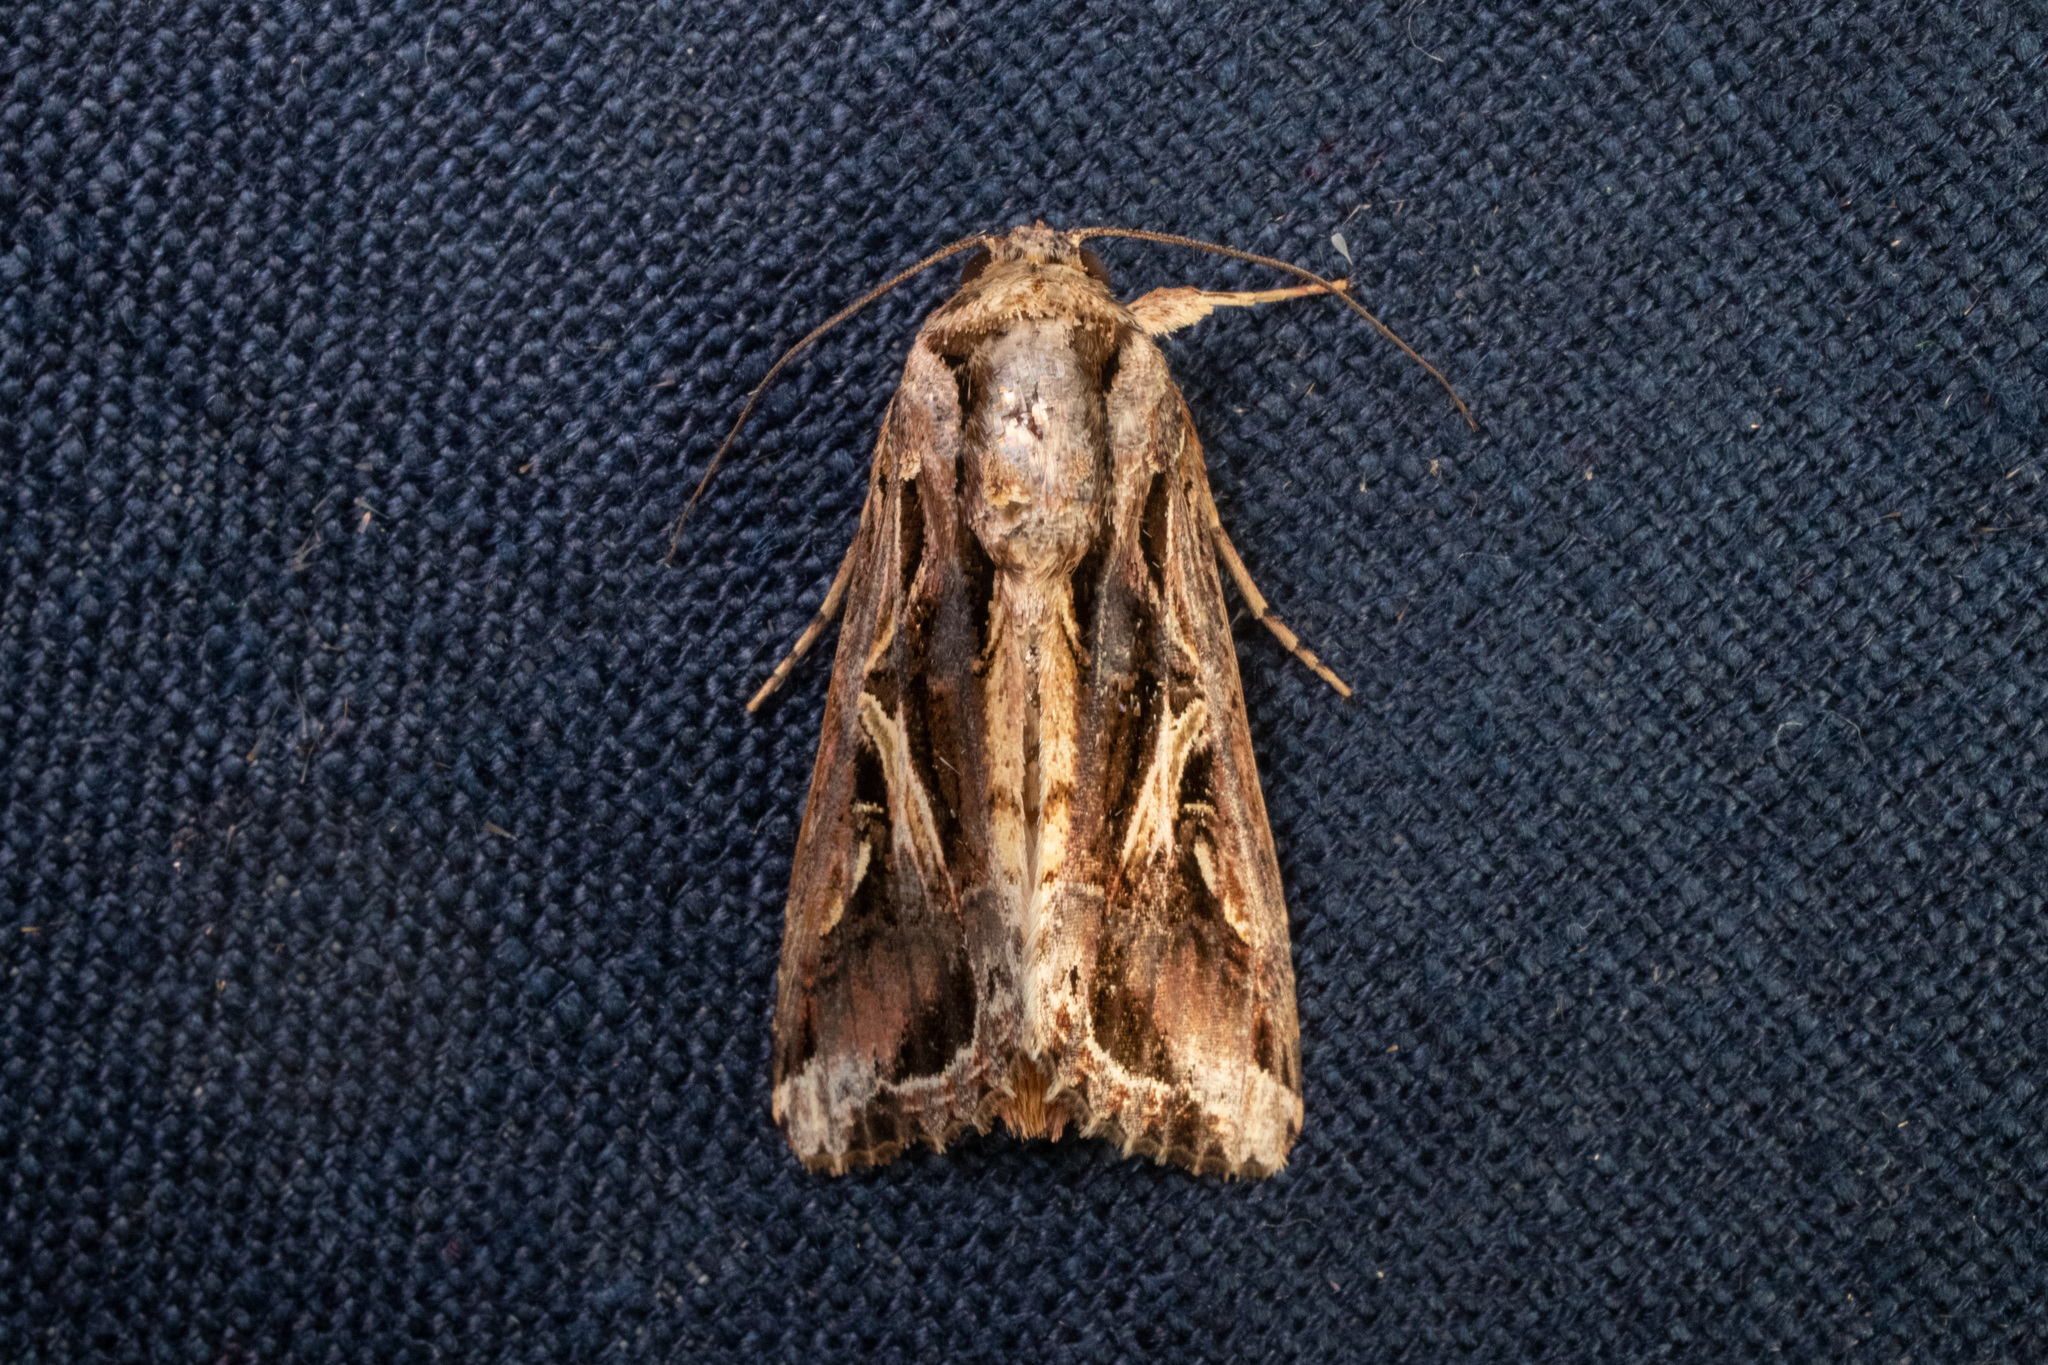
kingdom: Animalia
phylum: Arthropoda
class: Insecta
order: Lepidoptera
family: Noctuidae
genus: Spodoptera
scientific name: Spodoptera dolichos
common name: Sweetpotato armyworm
